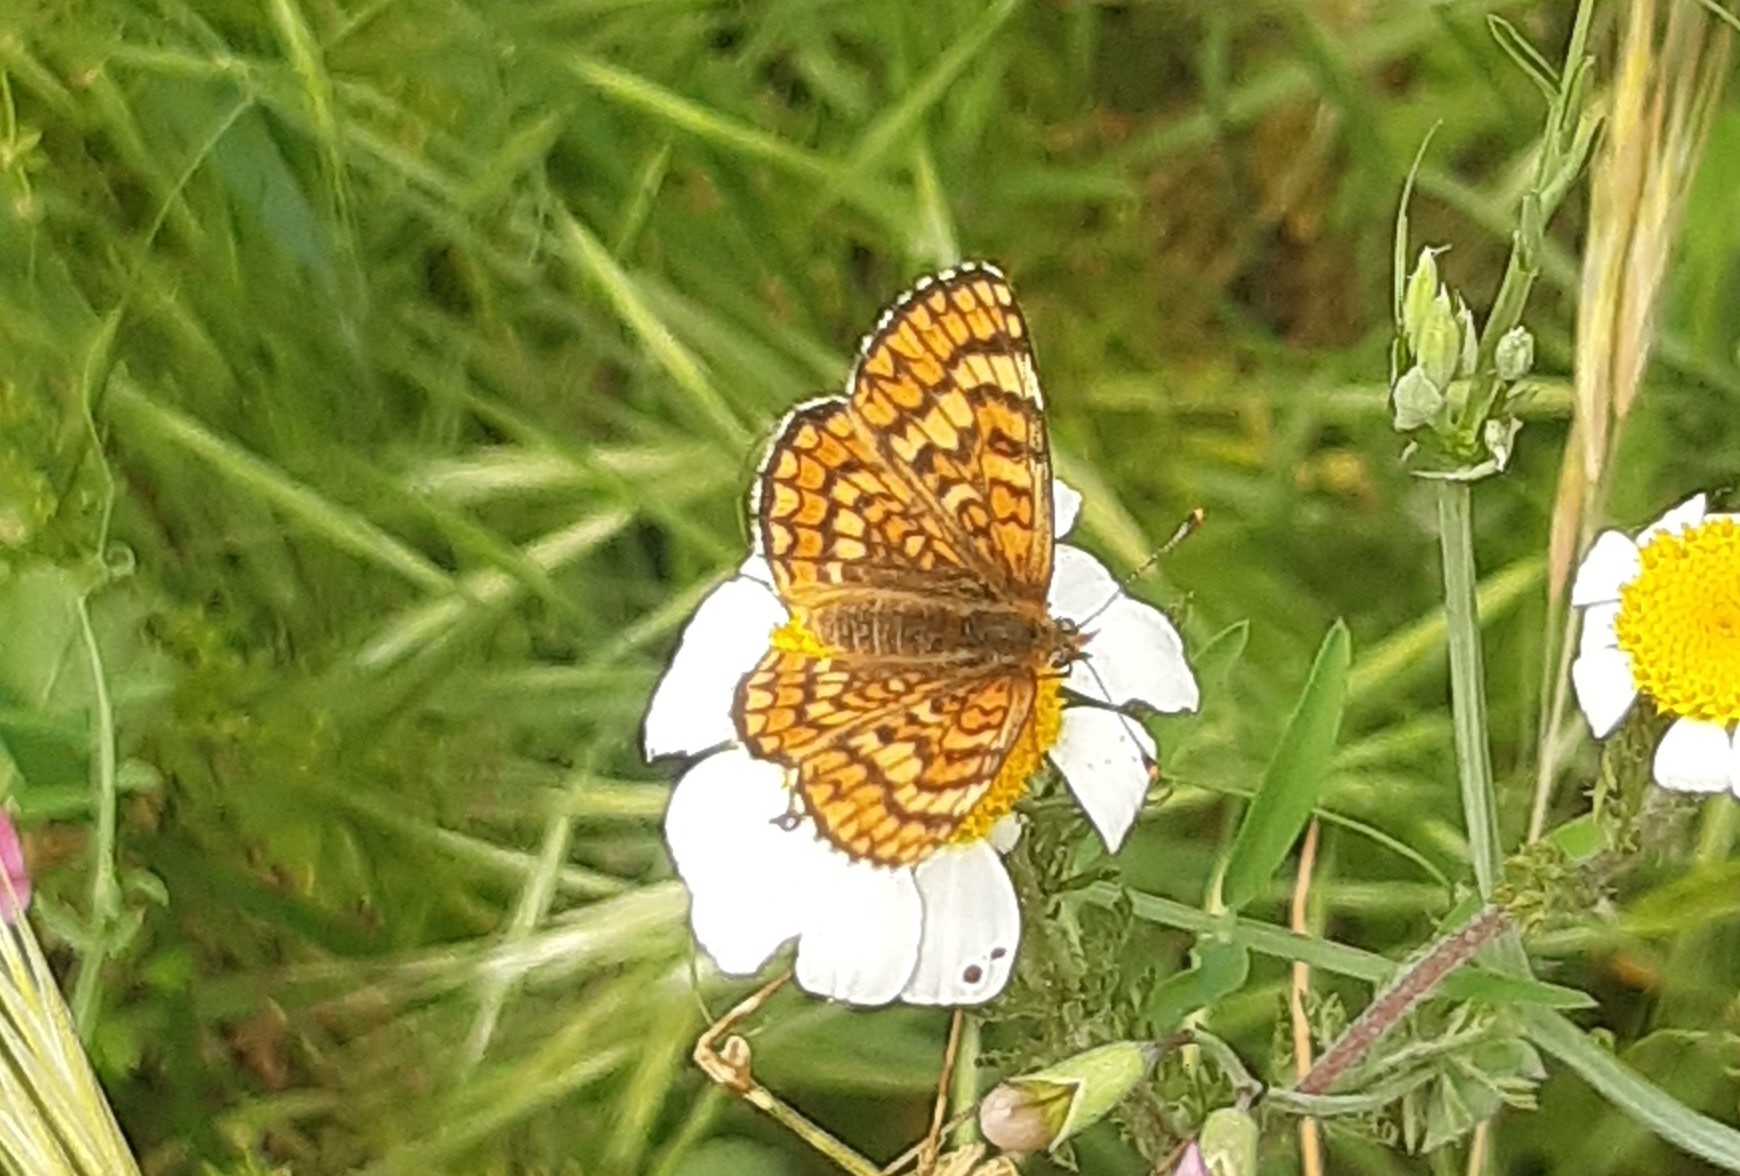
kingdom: Animalia
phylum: Arthropoda
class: Insecta
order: Lepidoptera
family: Nymphalidae
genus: Melitaea
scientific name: Melitaea deione
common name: Provençal fritillary
